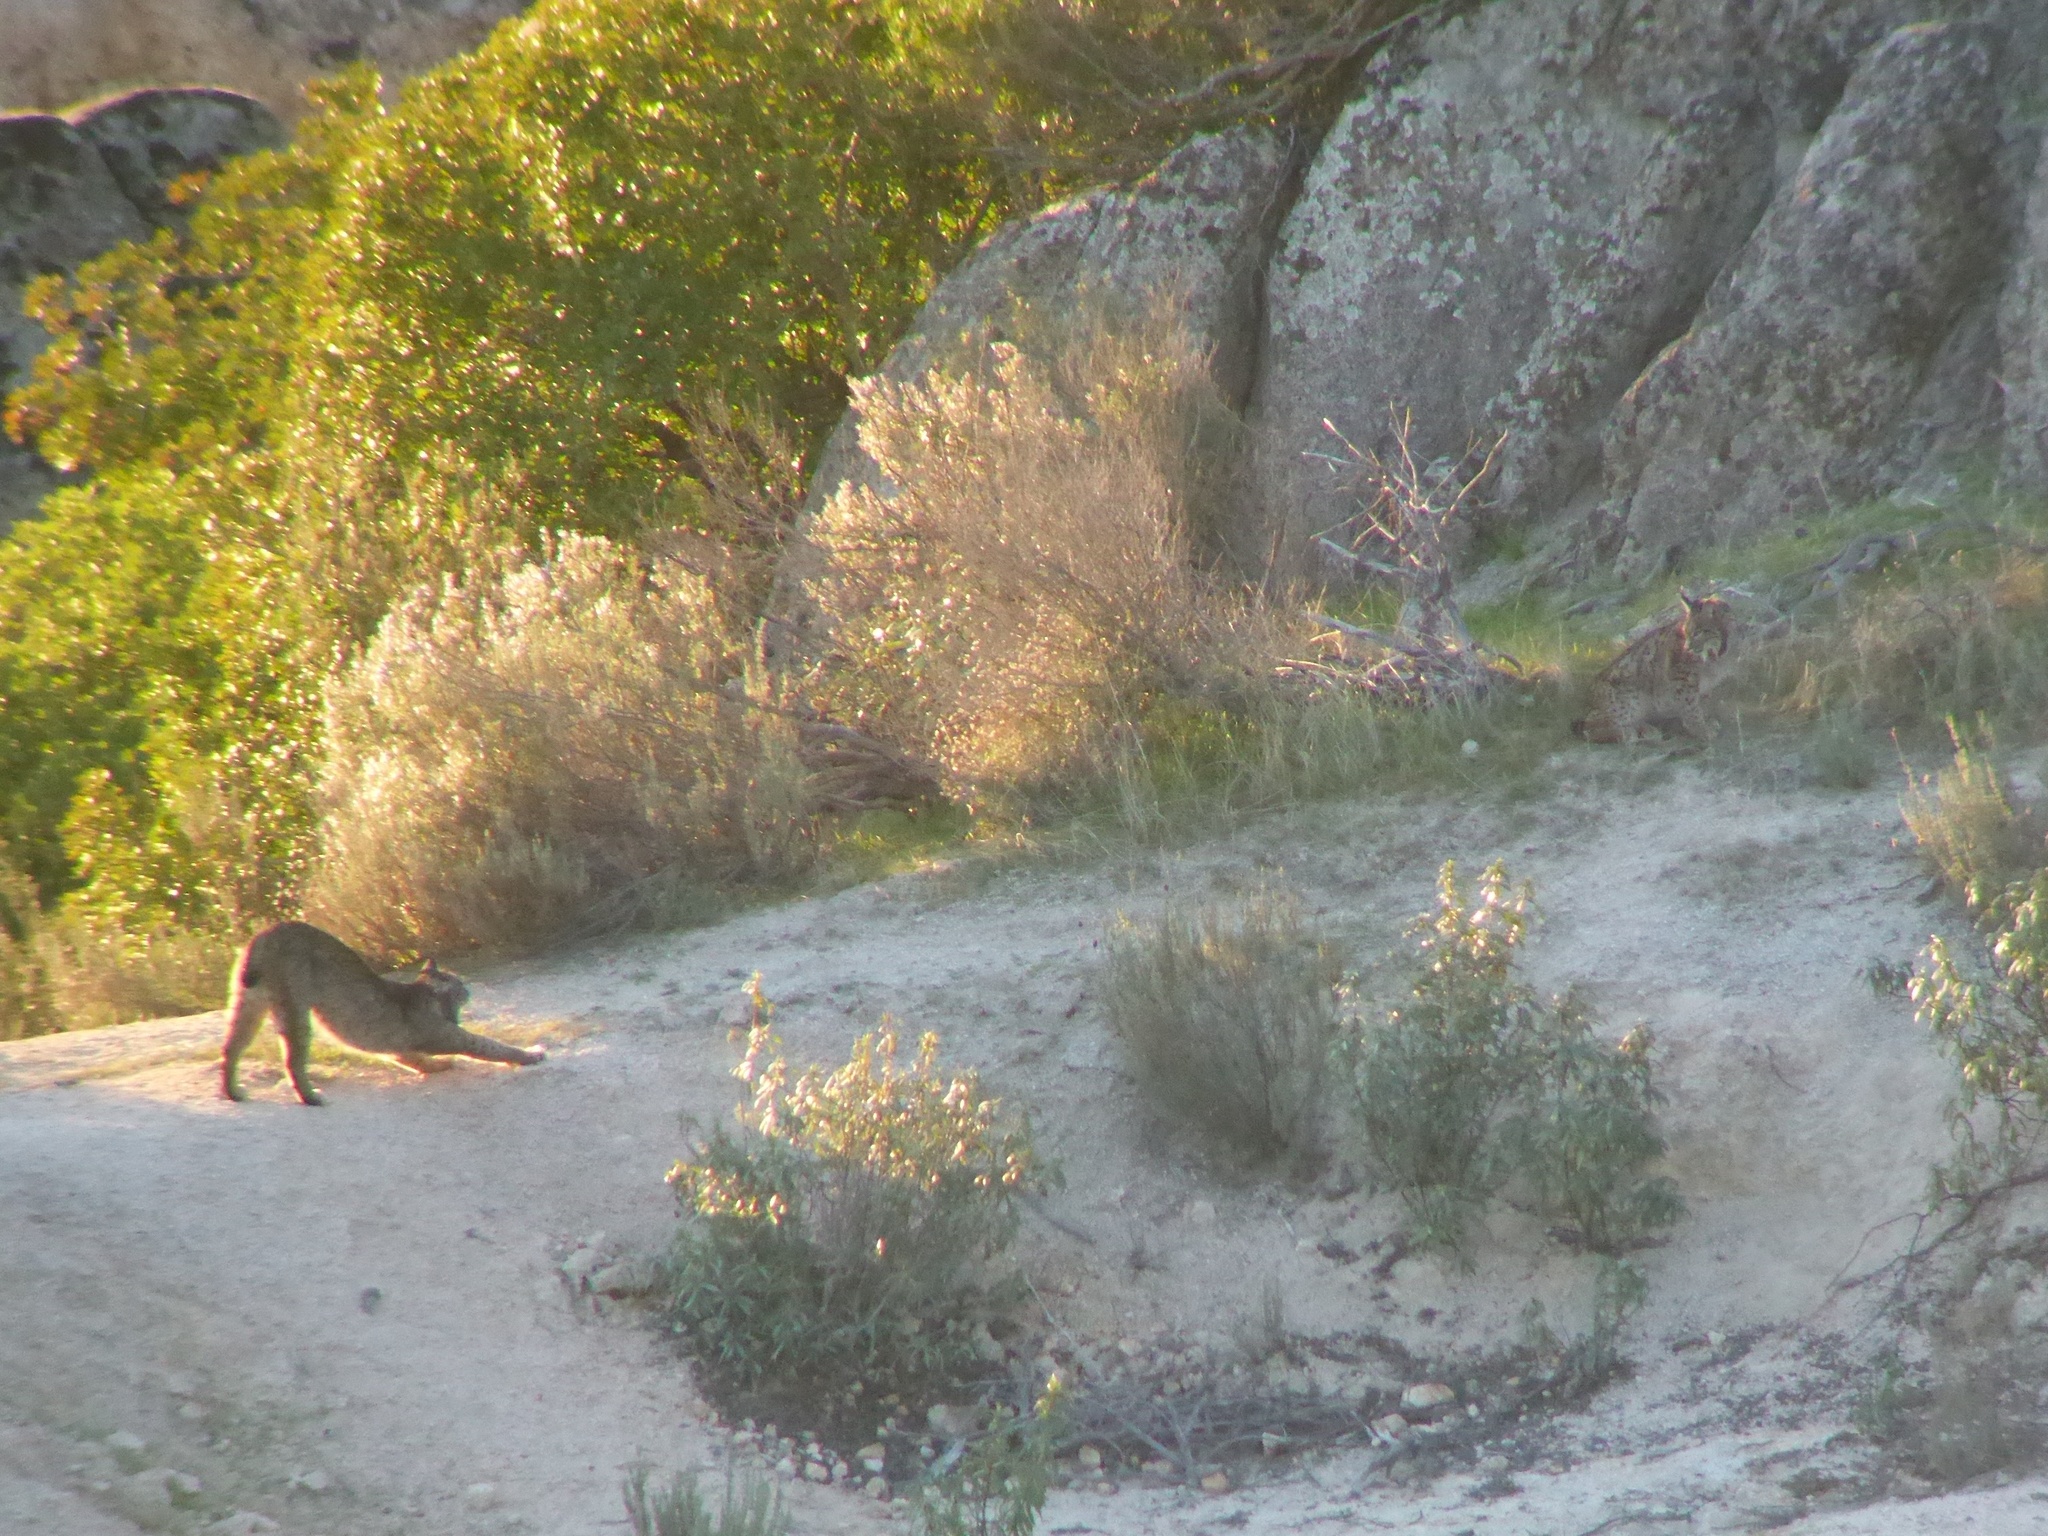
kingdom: Animalia
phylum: Chordata
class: Mammalia
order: Carnivora
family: Felidae
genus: Lynx
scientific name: Lynx pardinus
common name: Spanish lynx
